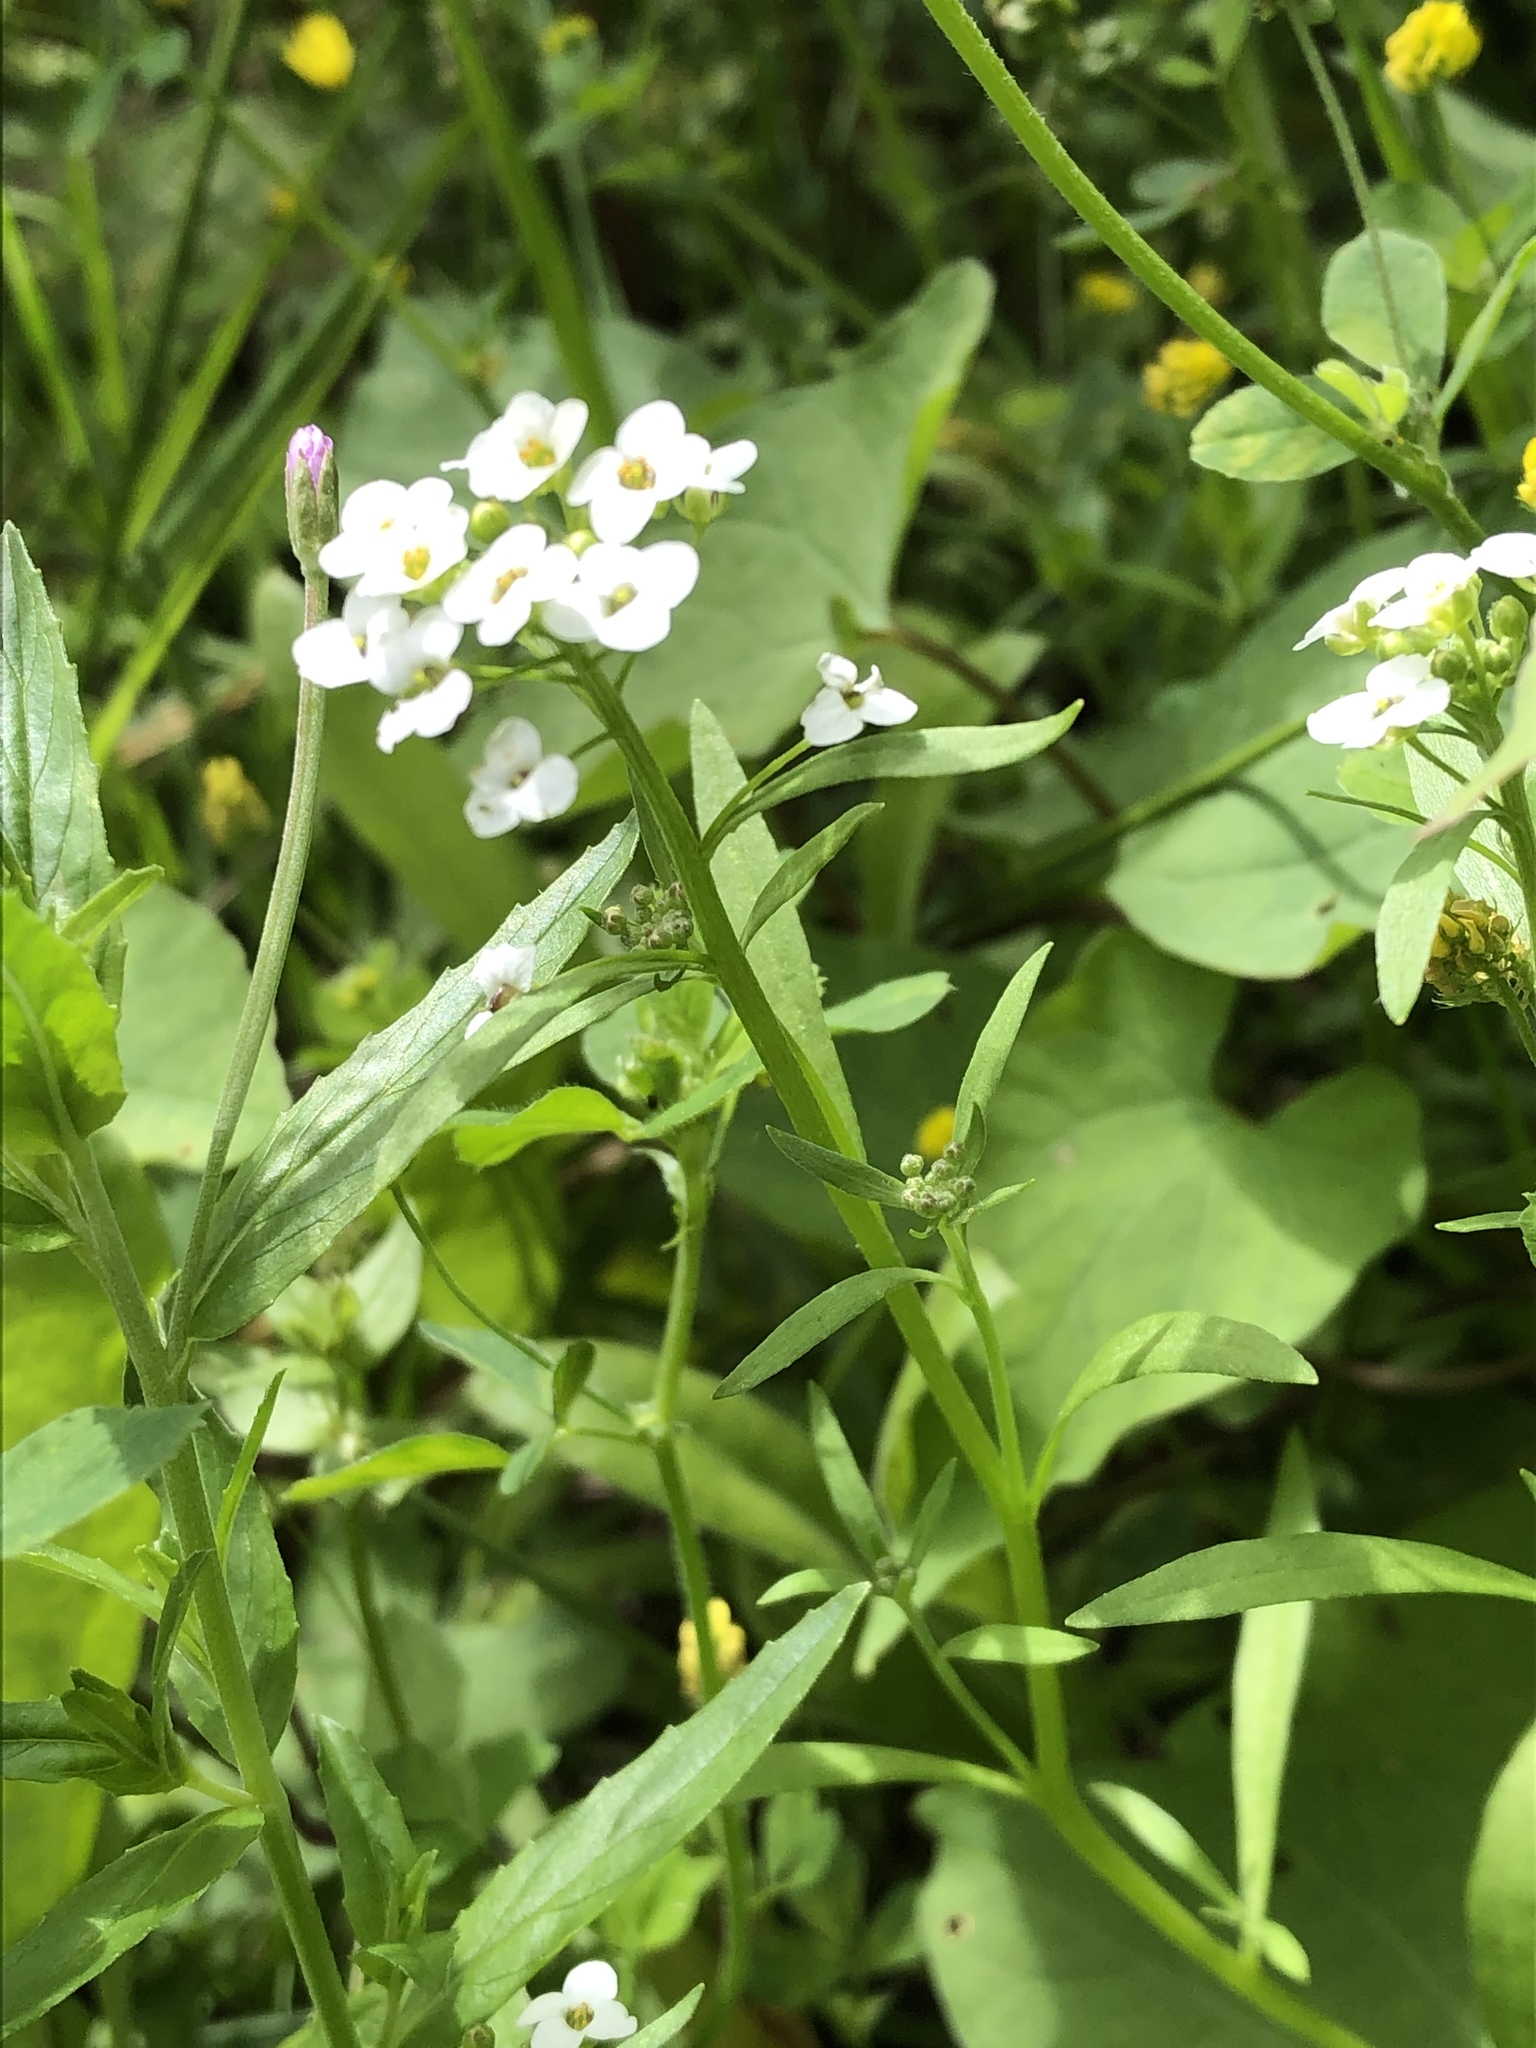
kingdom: Plantae
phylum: Tracheophyta
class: Magnoliopsida
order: Brassicales
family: Brassicaceae
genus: Lobularia
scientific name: Lobularia maritima
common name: Sweet alison
